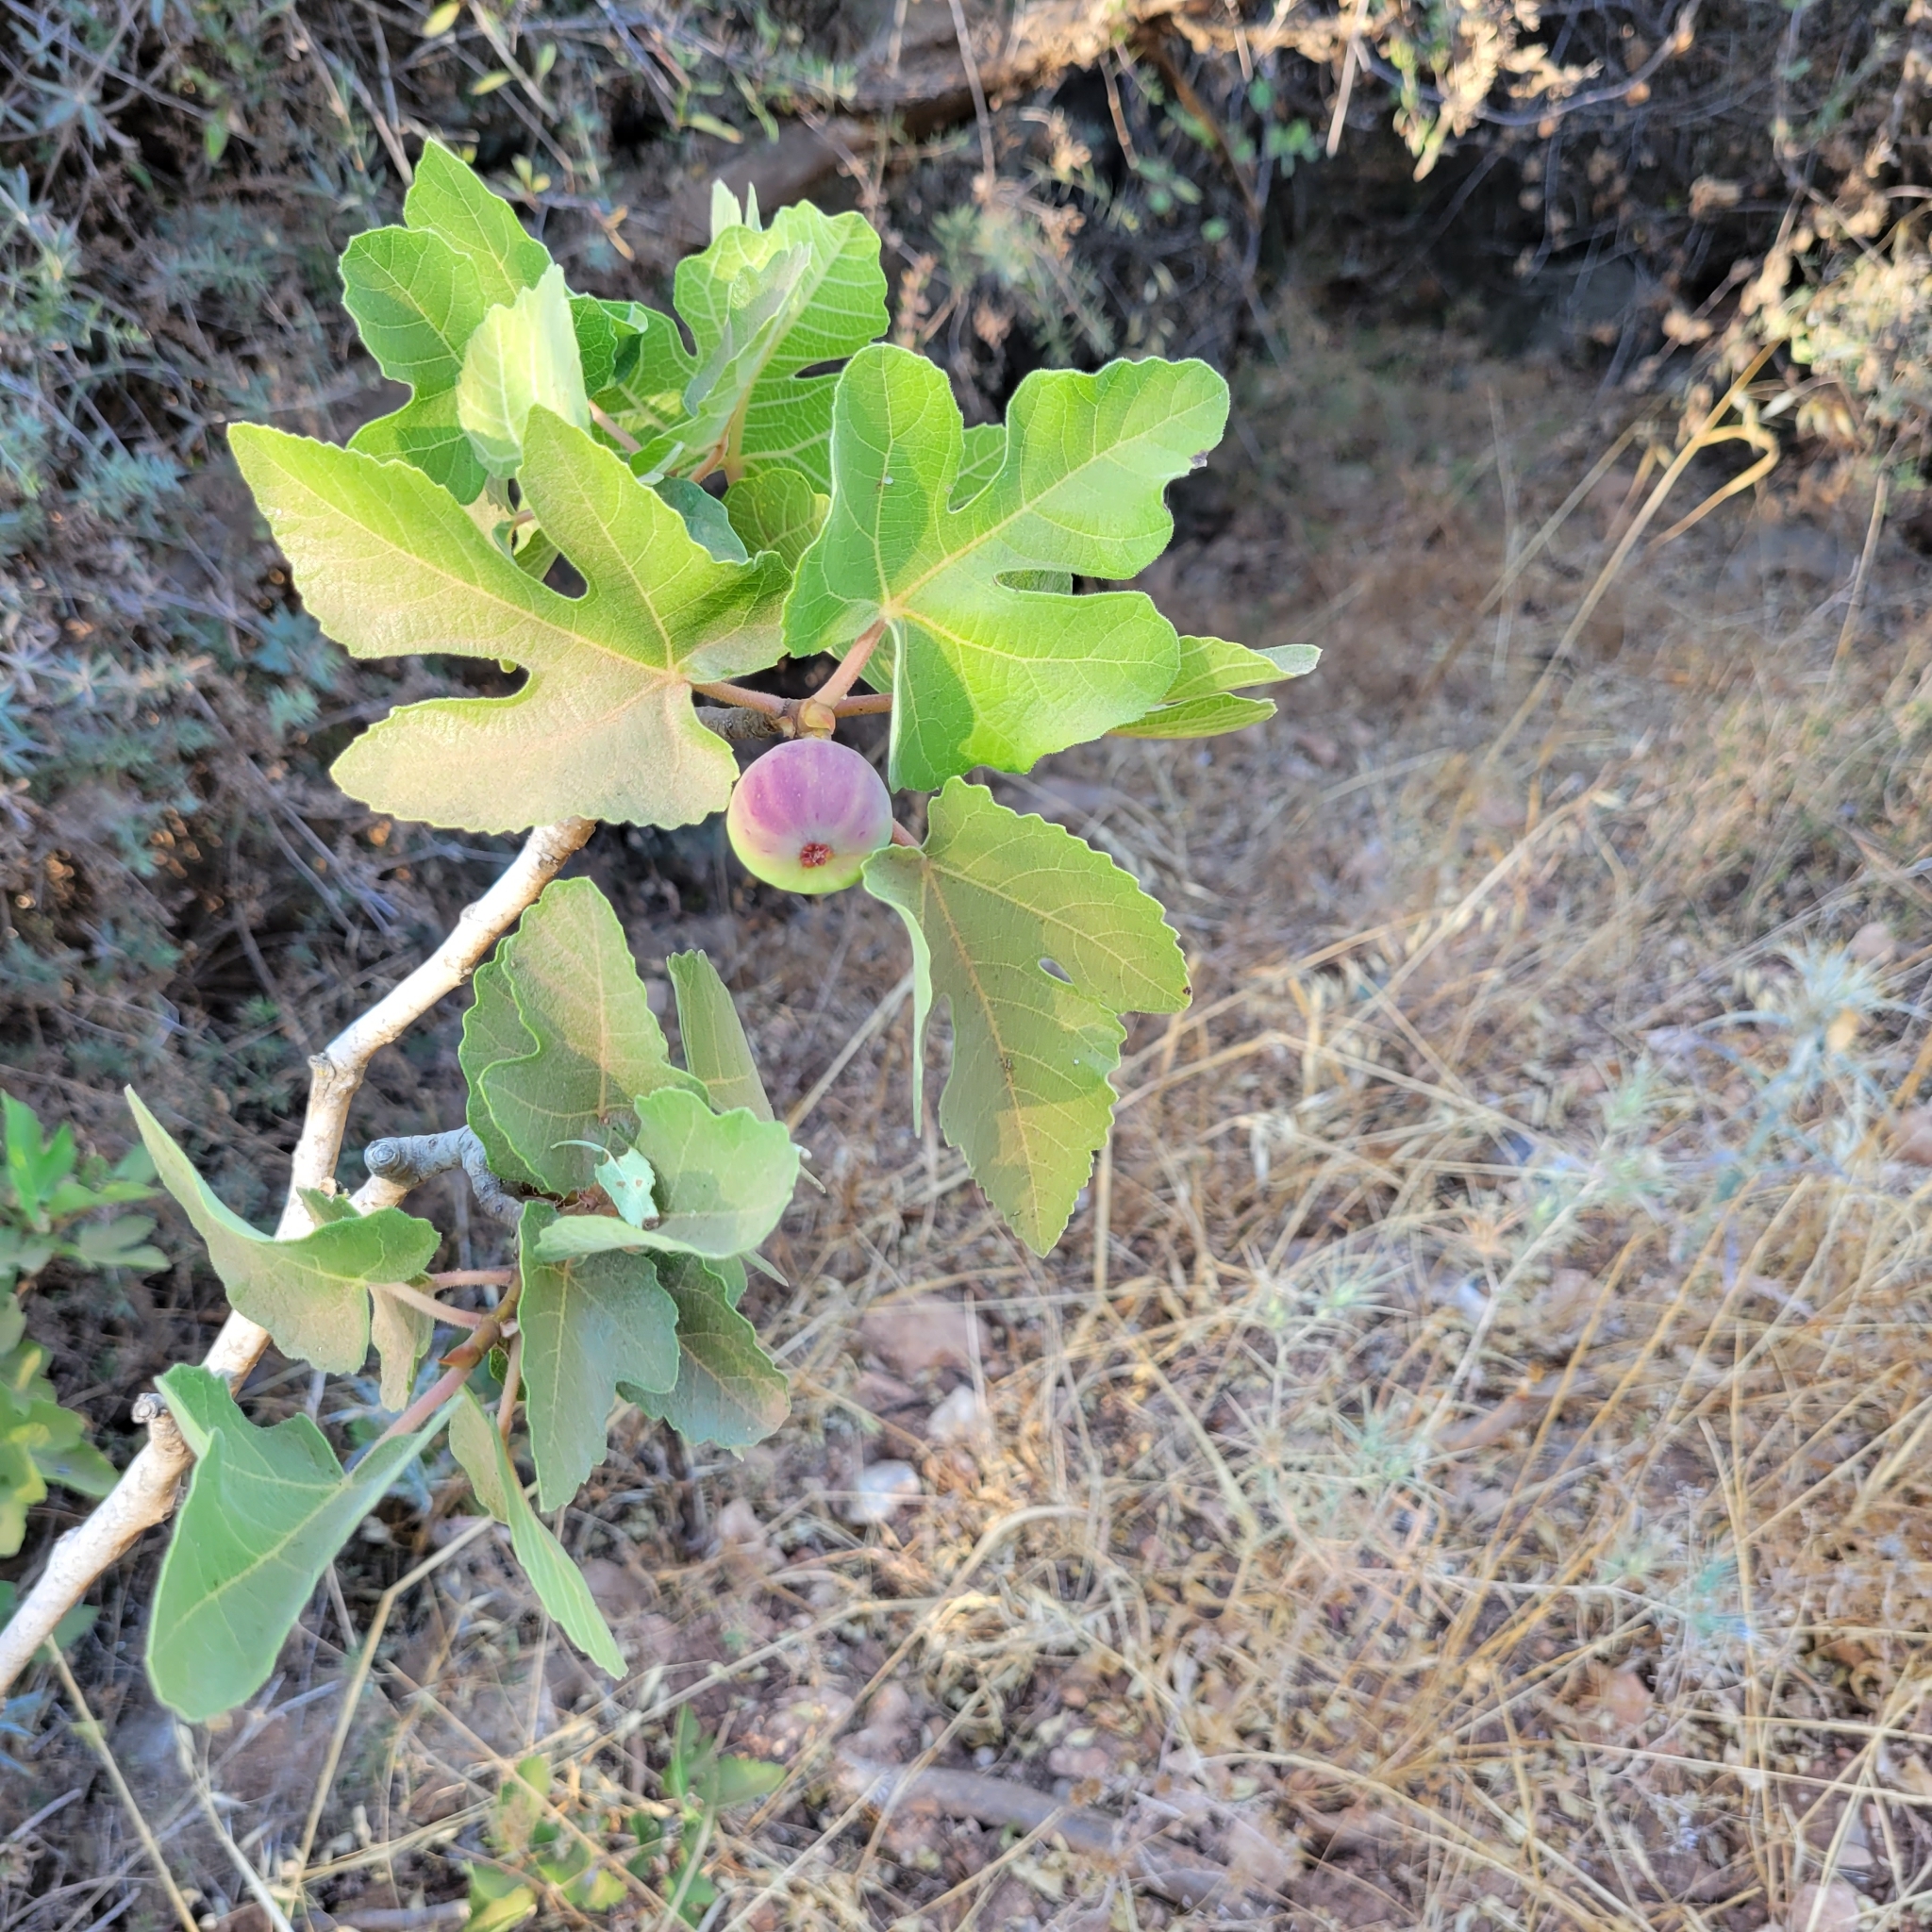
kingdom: Plantae
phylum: Tracheophyta
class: Magnoliopsida
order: Rosales
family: Moraceae
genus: Ficus
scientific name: Ficus carica
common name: Fig
